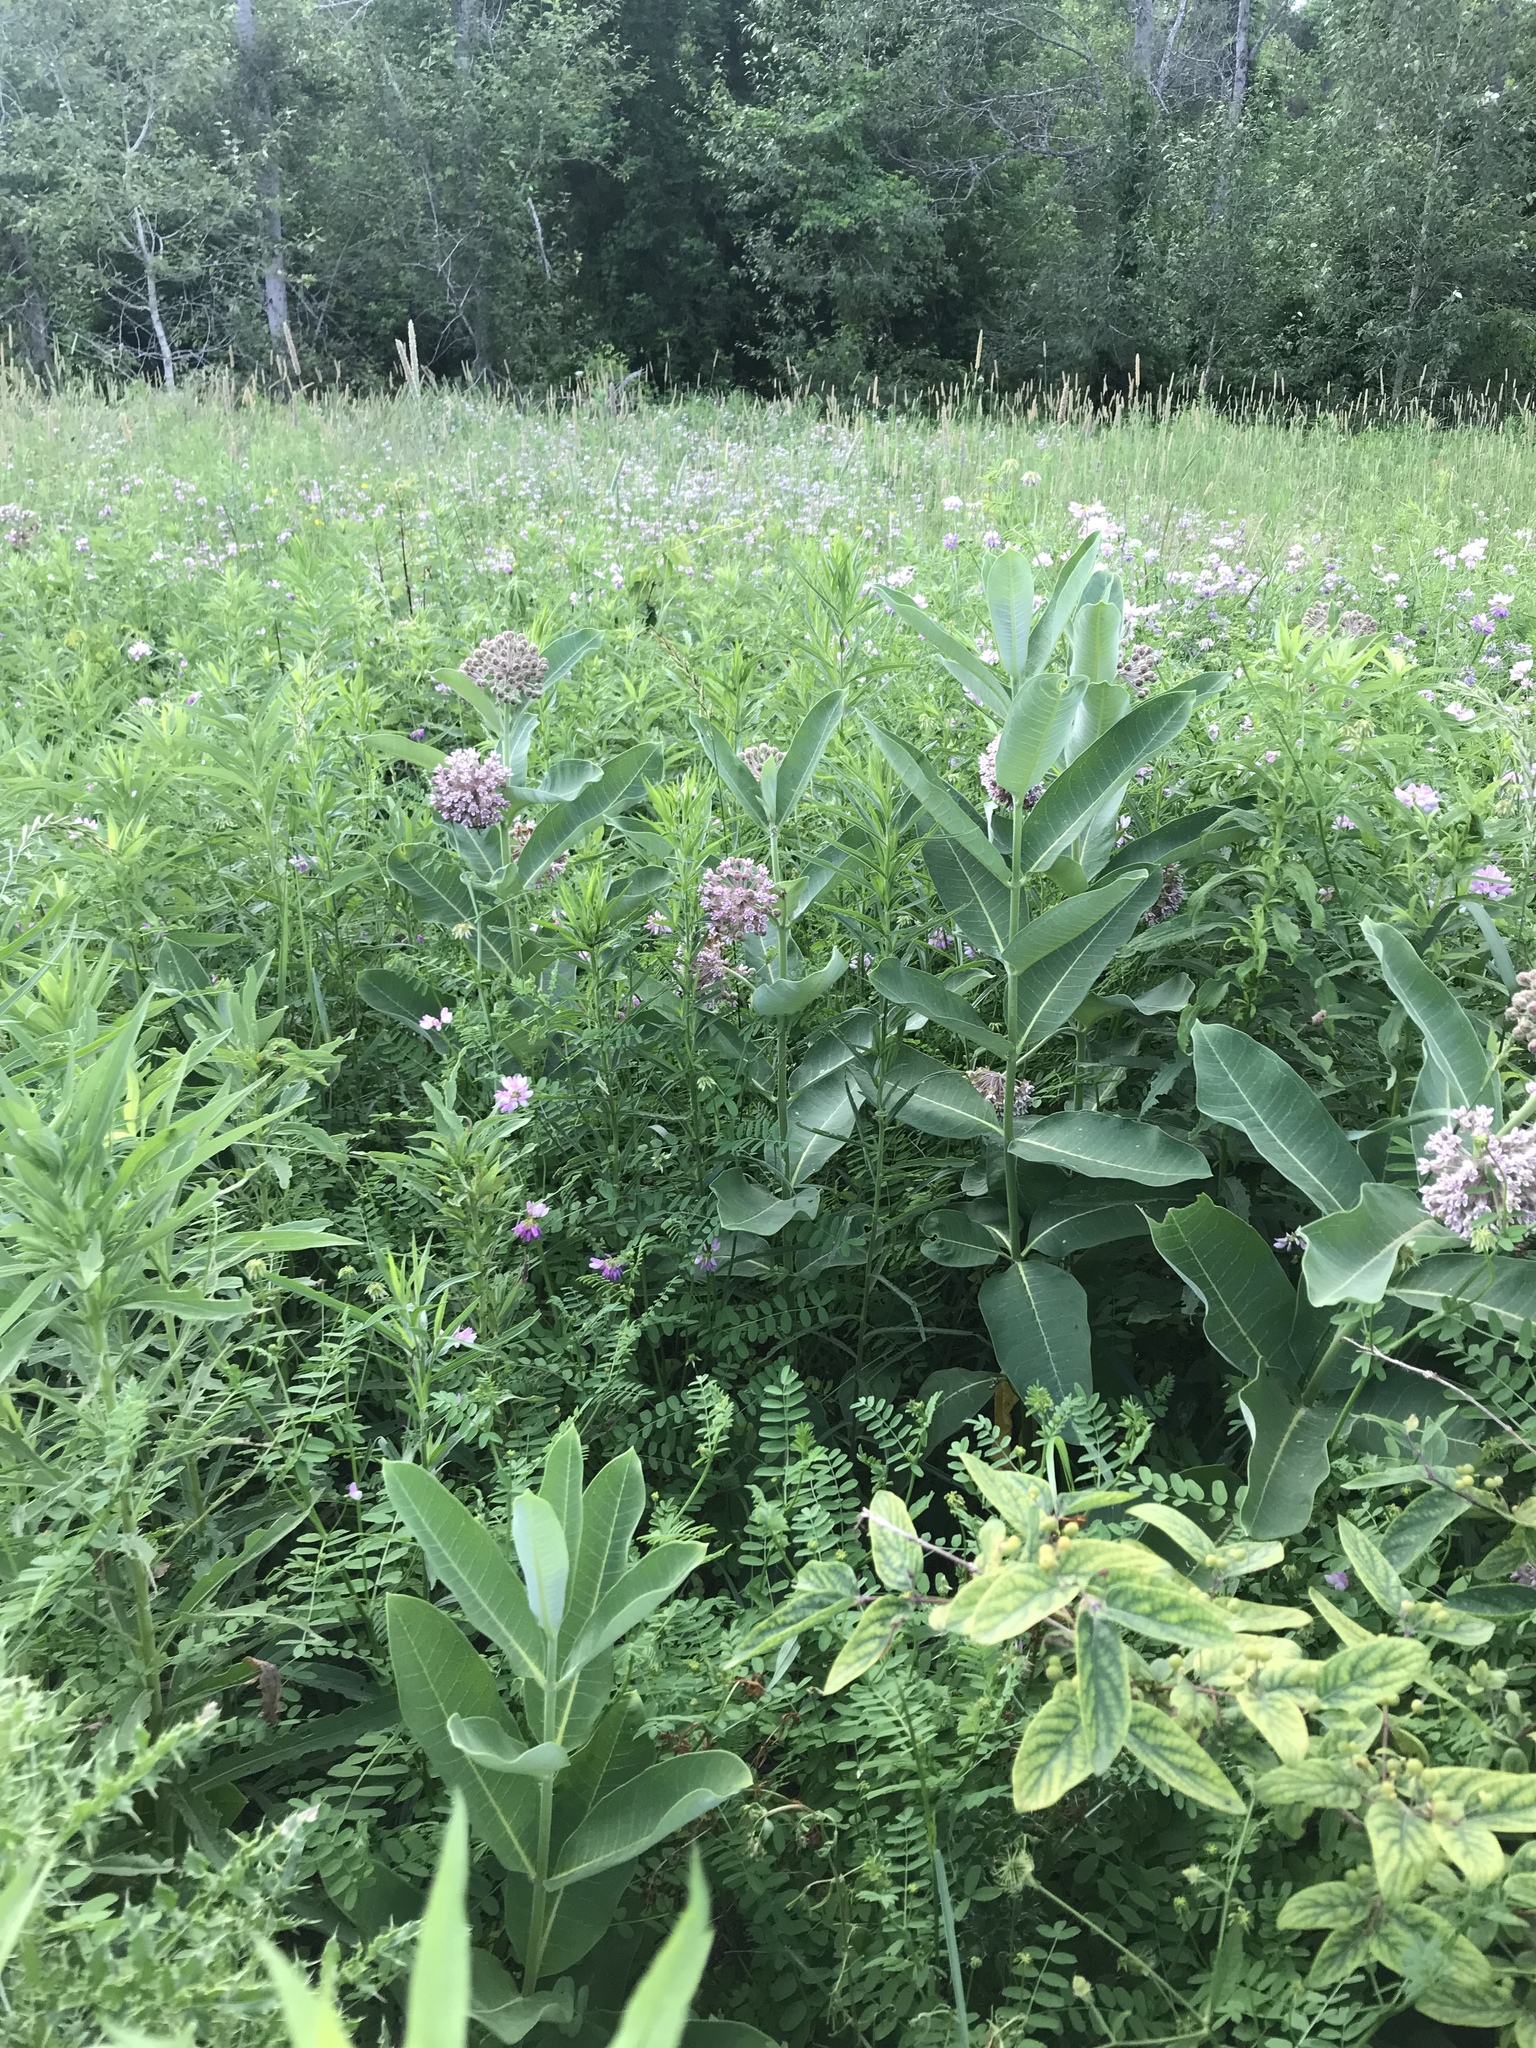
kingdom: Plantae
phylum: Tracheophyta
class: Magnoliopsida
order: Gentianales
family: Apocynaceae
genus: Asclepias
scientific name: Asclepias syriaca
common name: Common milkweed
